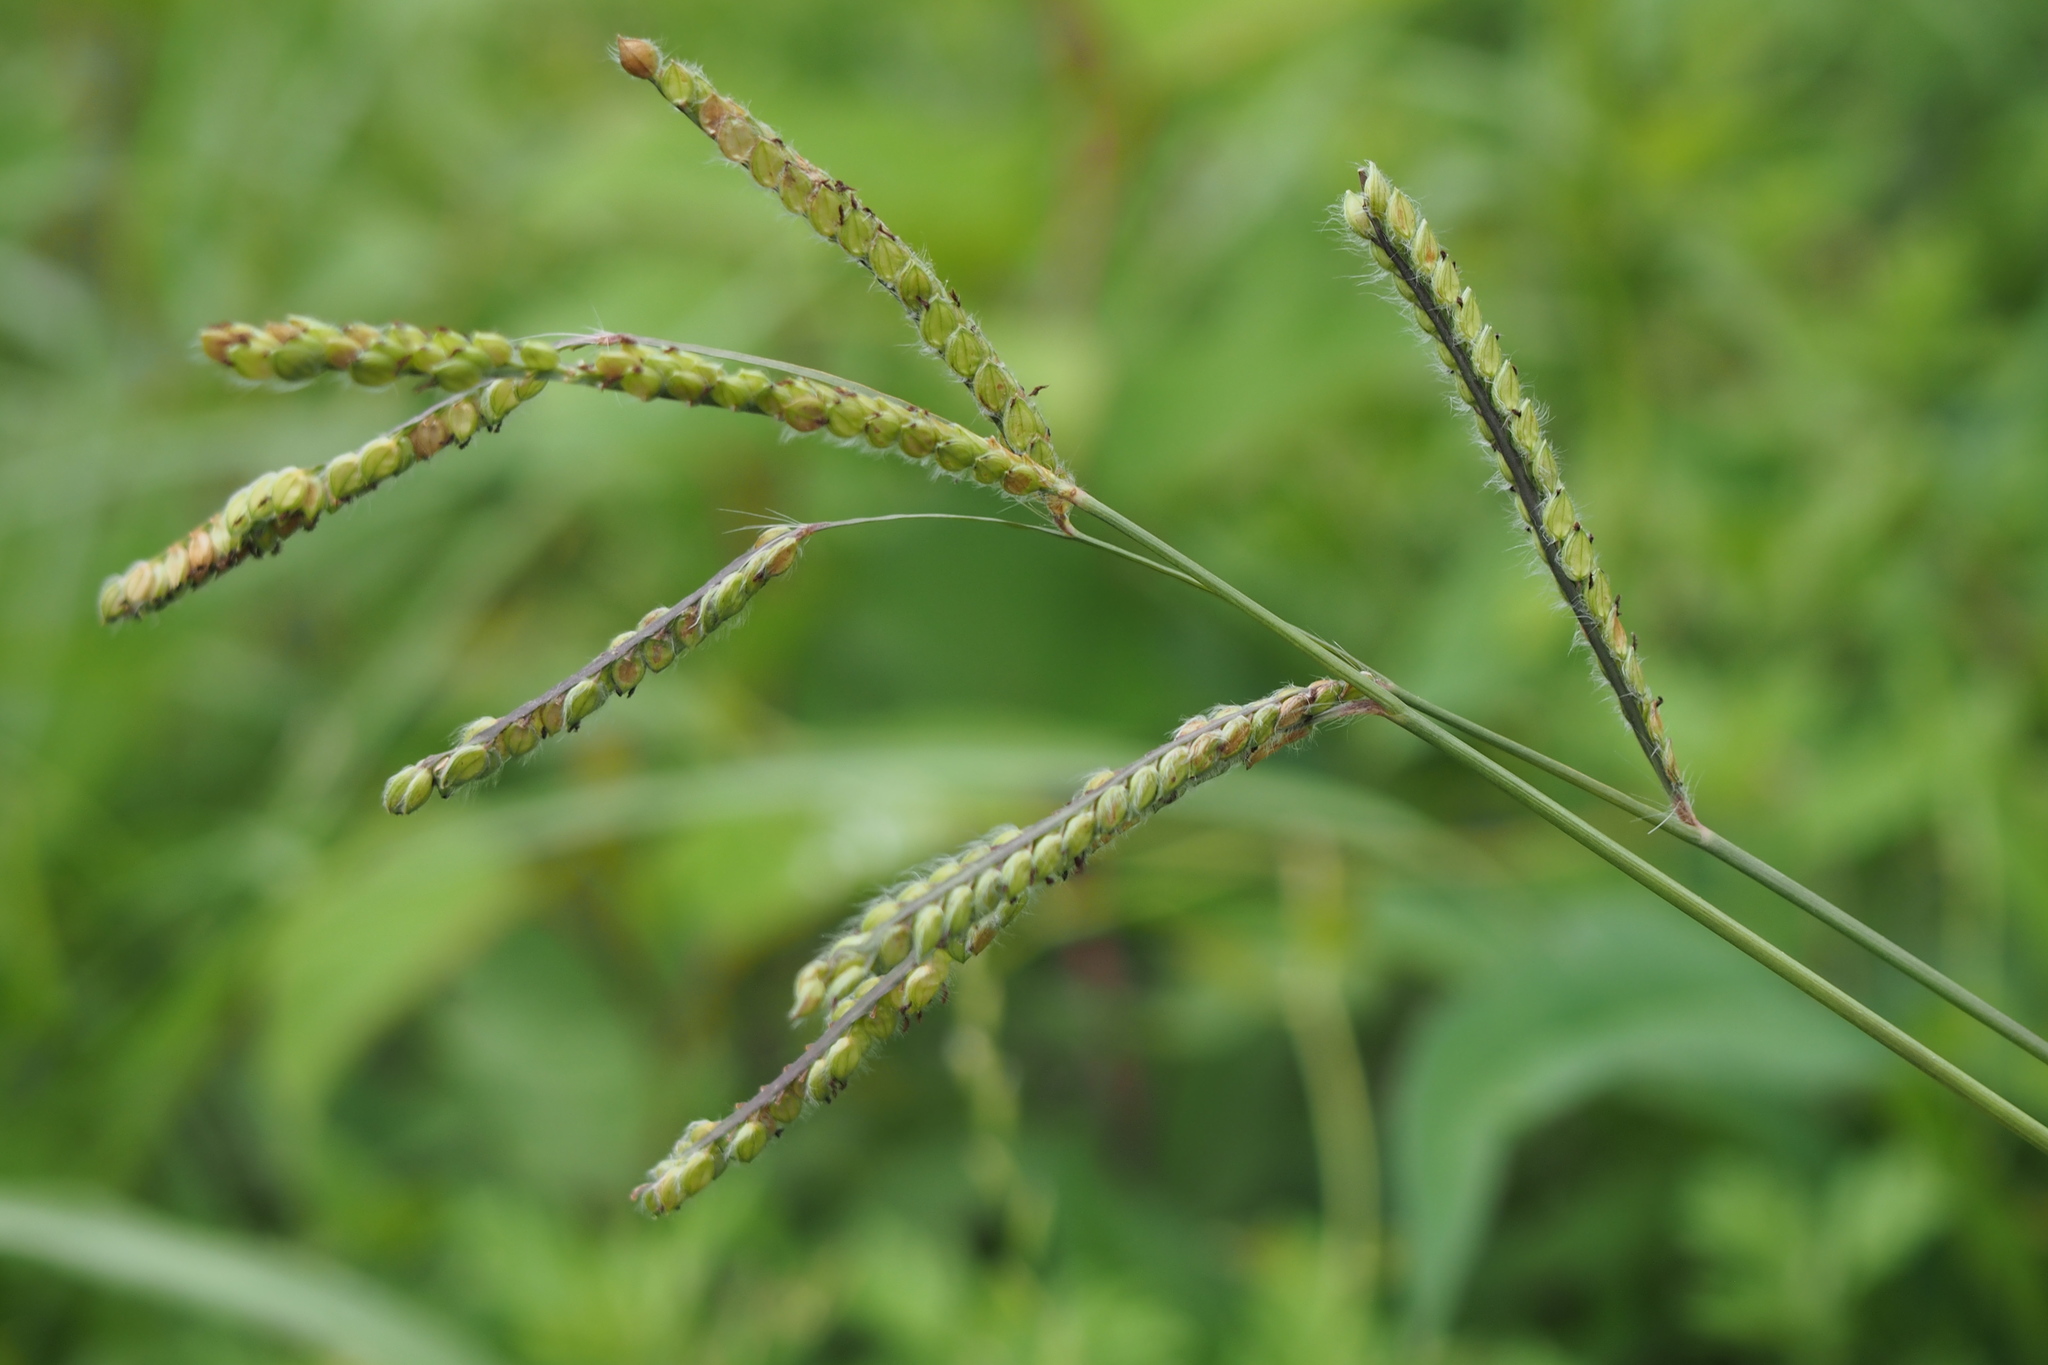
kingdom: Plantae
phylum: Tracheophyta
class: Liliopsida
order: Poales
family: Poaceae
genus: Paspalum
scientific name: Paspalum dilatatum
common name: Dallisgrass
